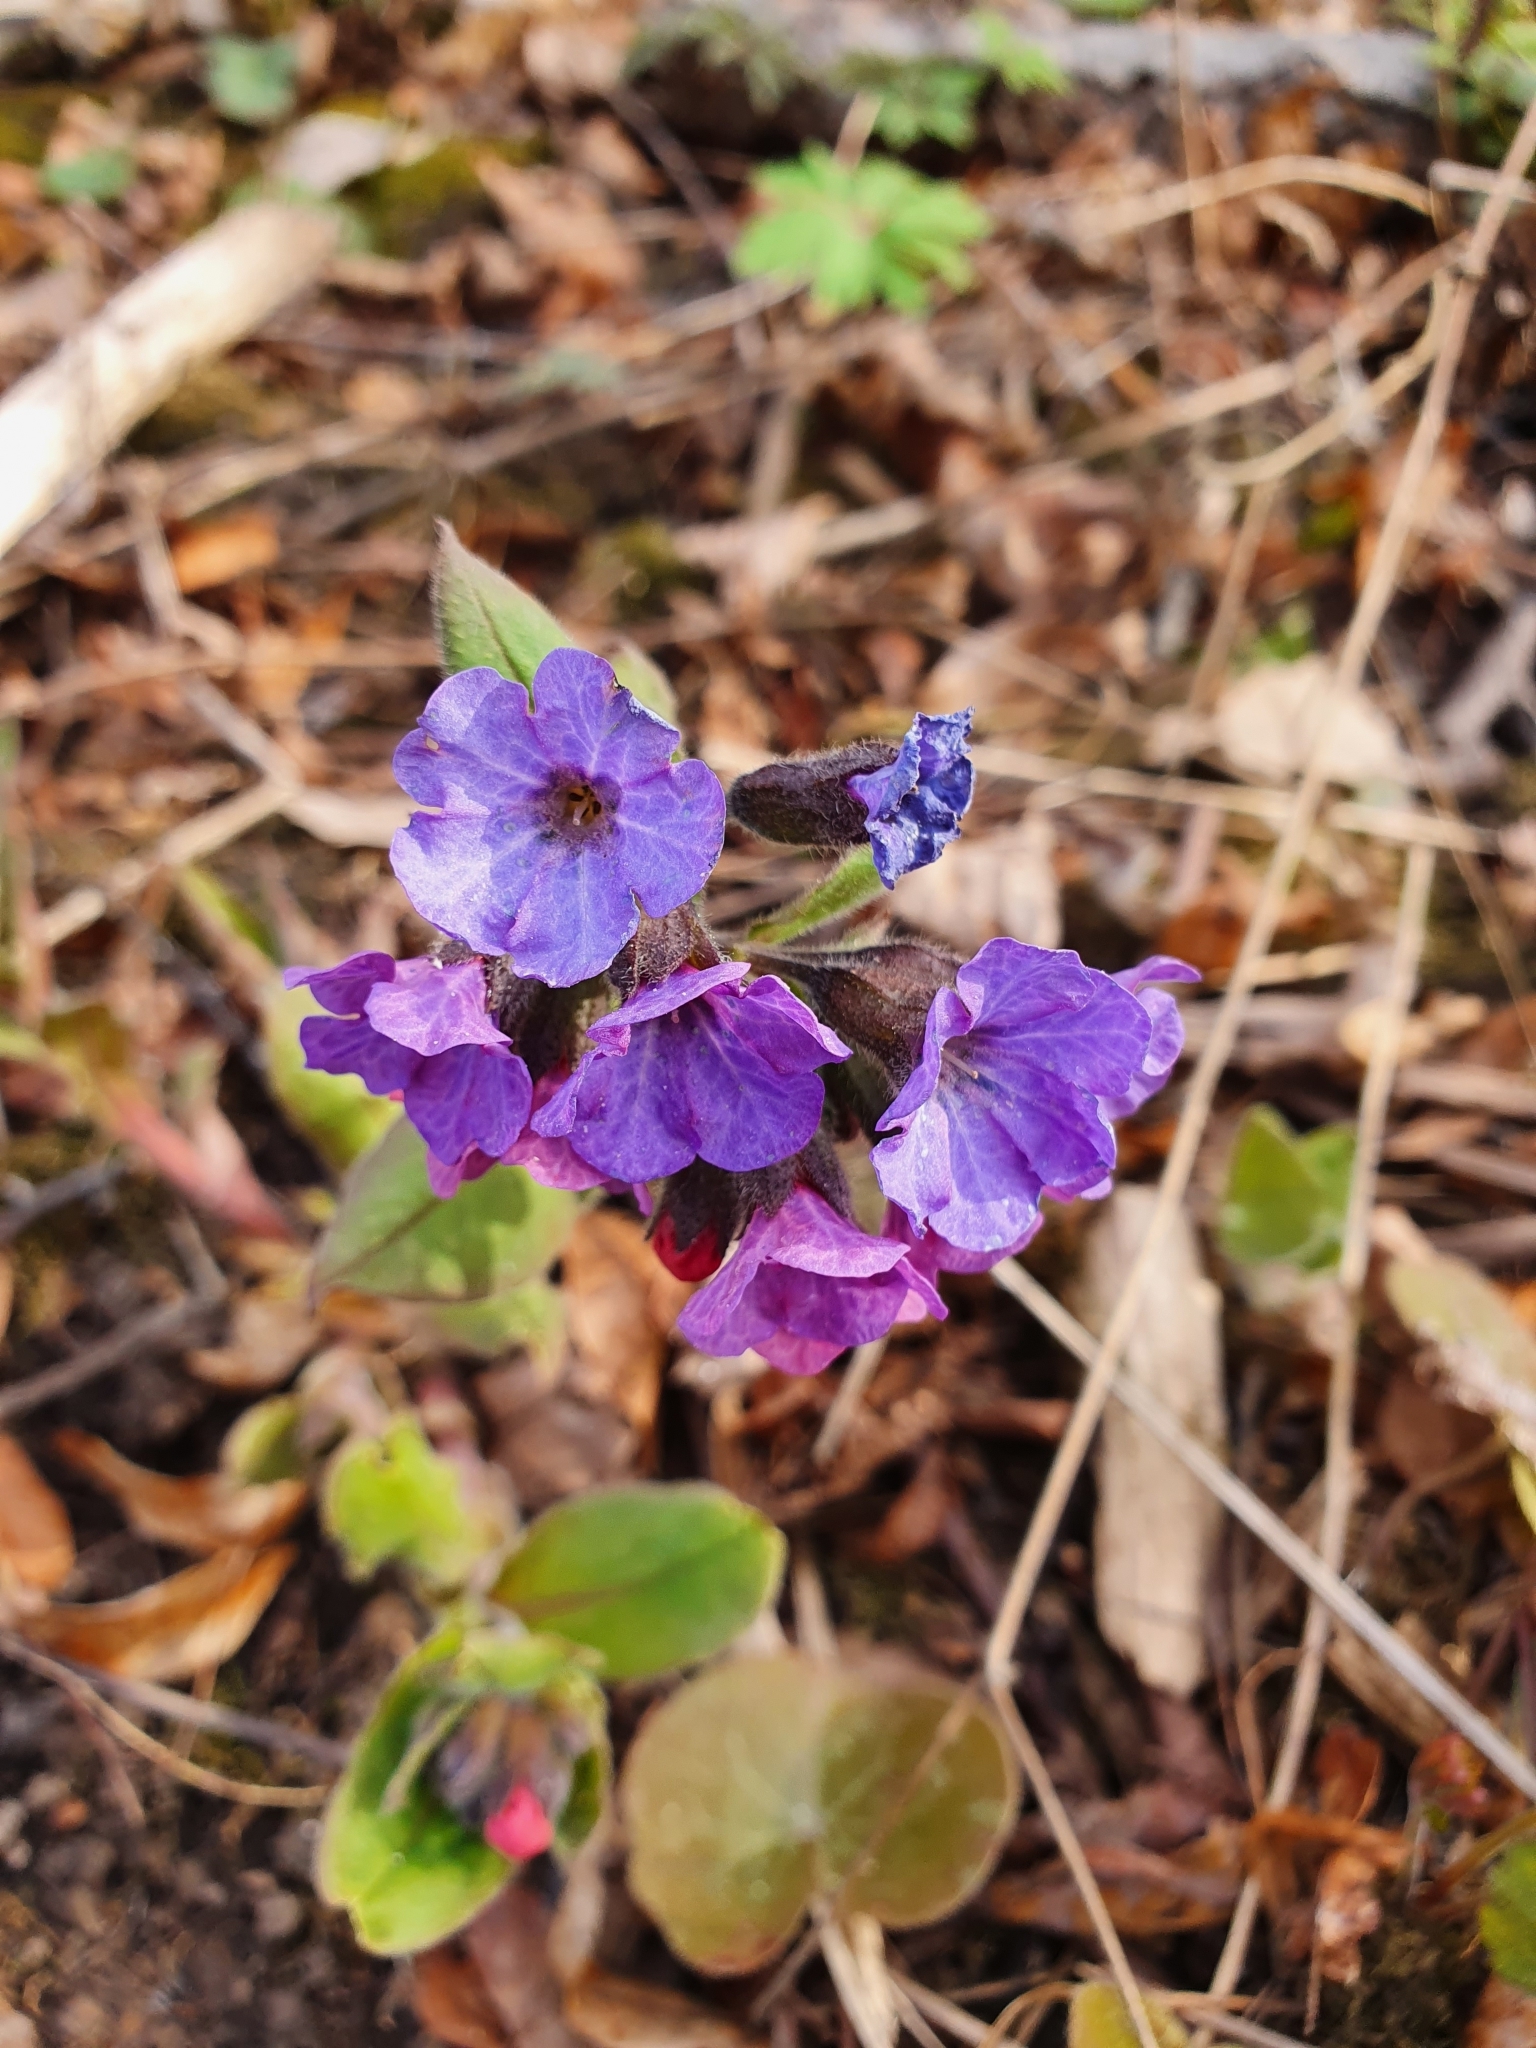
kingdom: Plantae
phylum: Tracheophyta
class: Magnoliopsida
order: Boraginales
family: Boraginaceae
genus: Pulmonaria
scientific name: Pulmonaria obscura
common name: Suffolk lungwort
